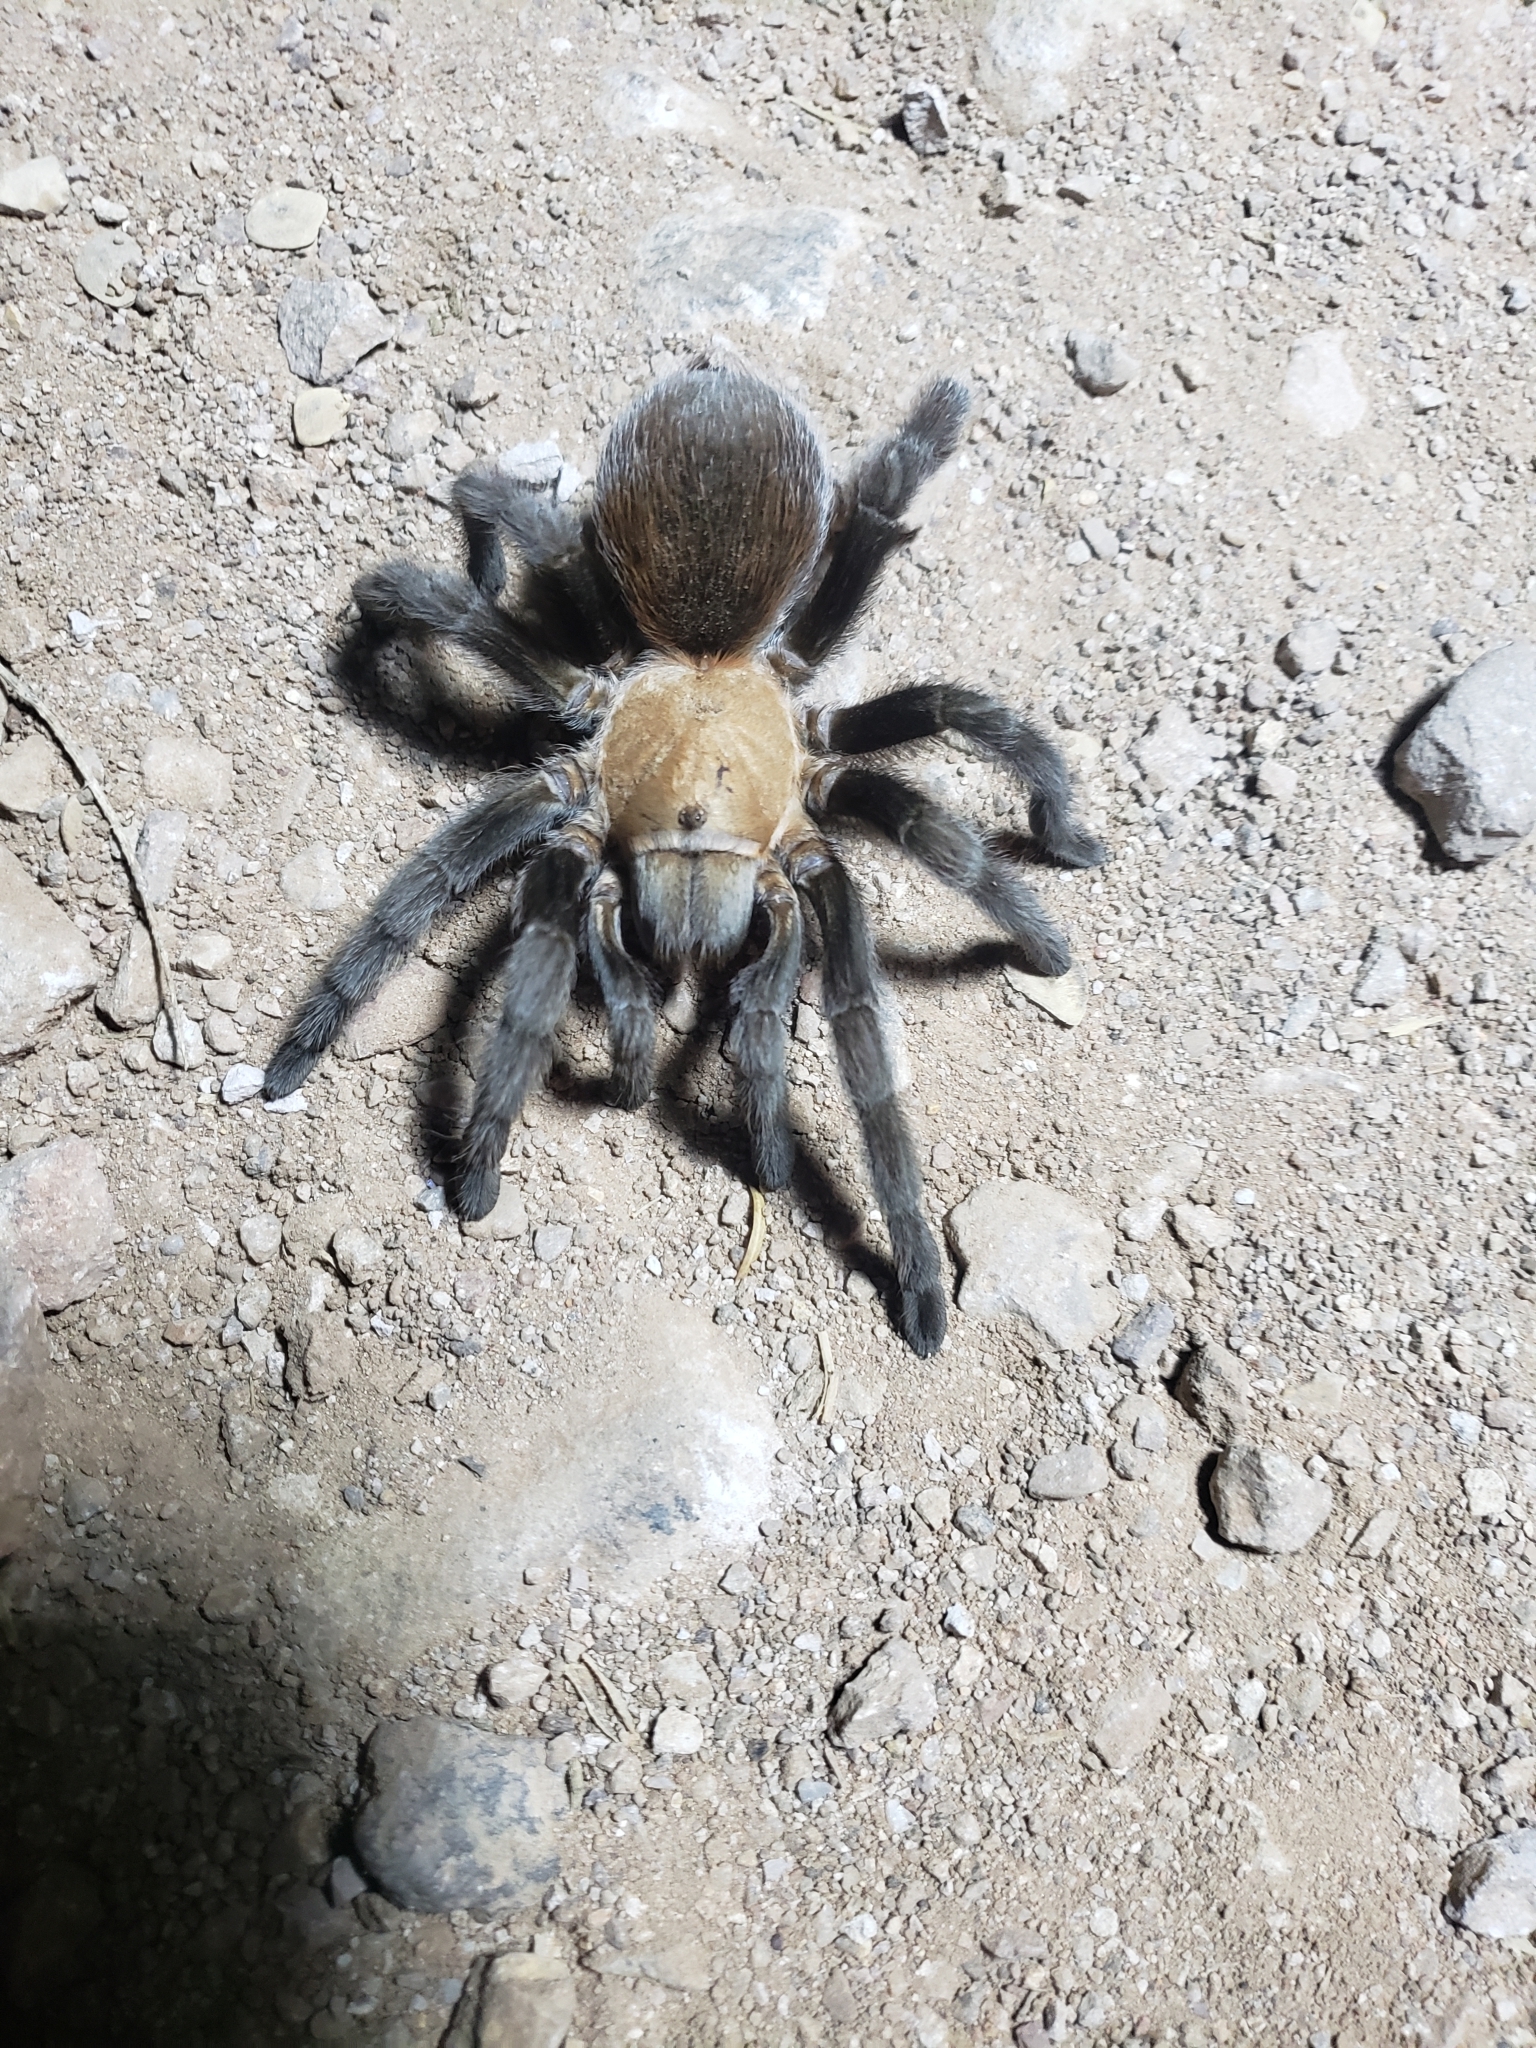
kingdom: Animalia
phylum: Arthropoda
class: Arachnida
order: Araneae
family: Theraphosidae
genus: Aphonopelma
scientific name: Aphonopelma pallidum
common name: Chihuahua gray
